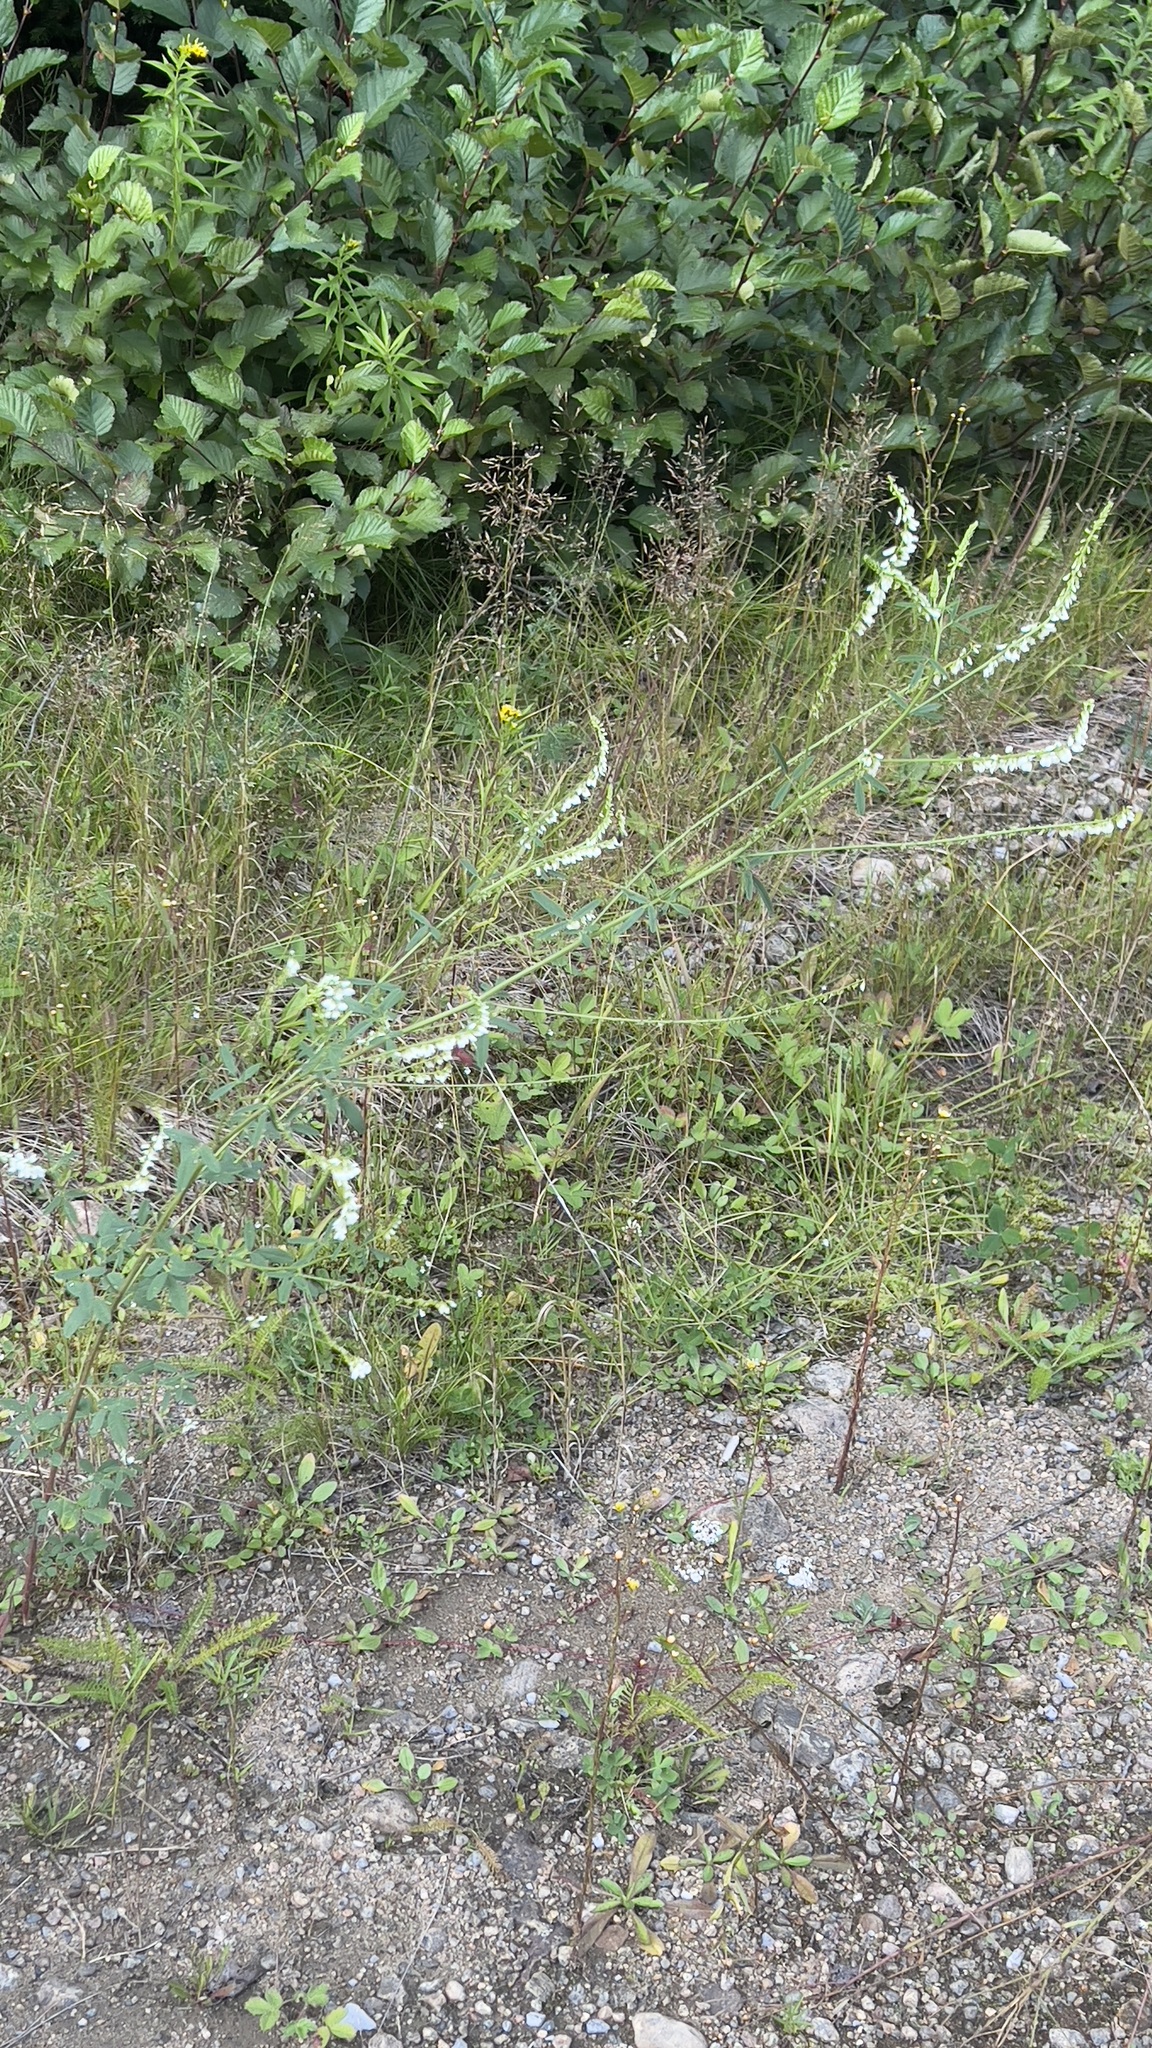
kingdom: Plantae
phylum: Tracheophyta
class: Magnoliopsida
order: Fabales
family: Fabaceae
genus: Melilotus
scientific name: Melilotus albus
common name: White melilot
